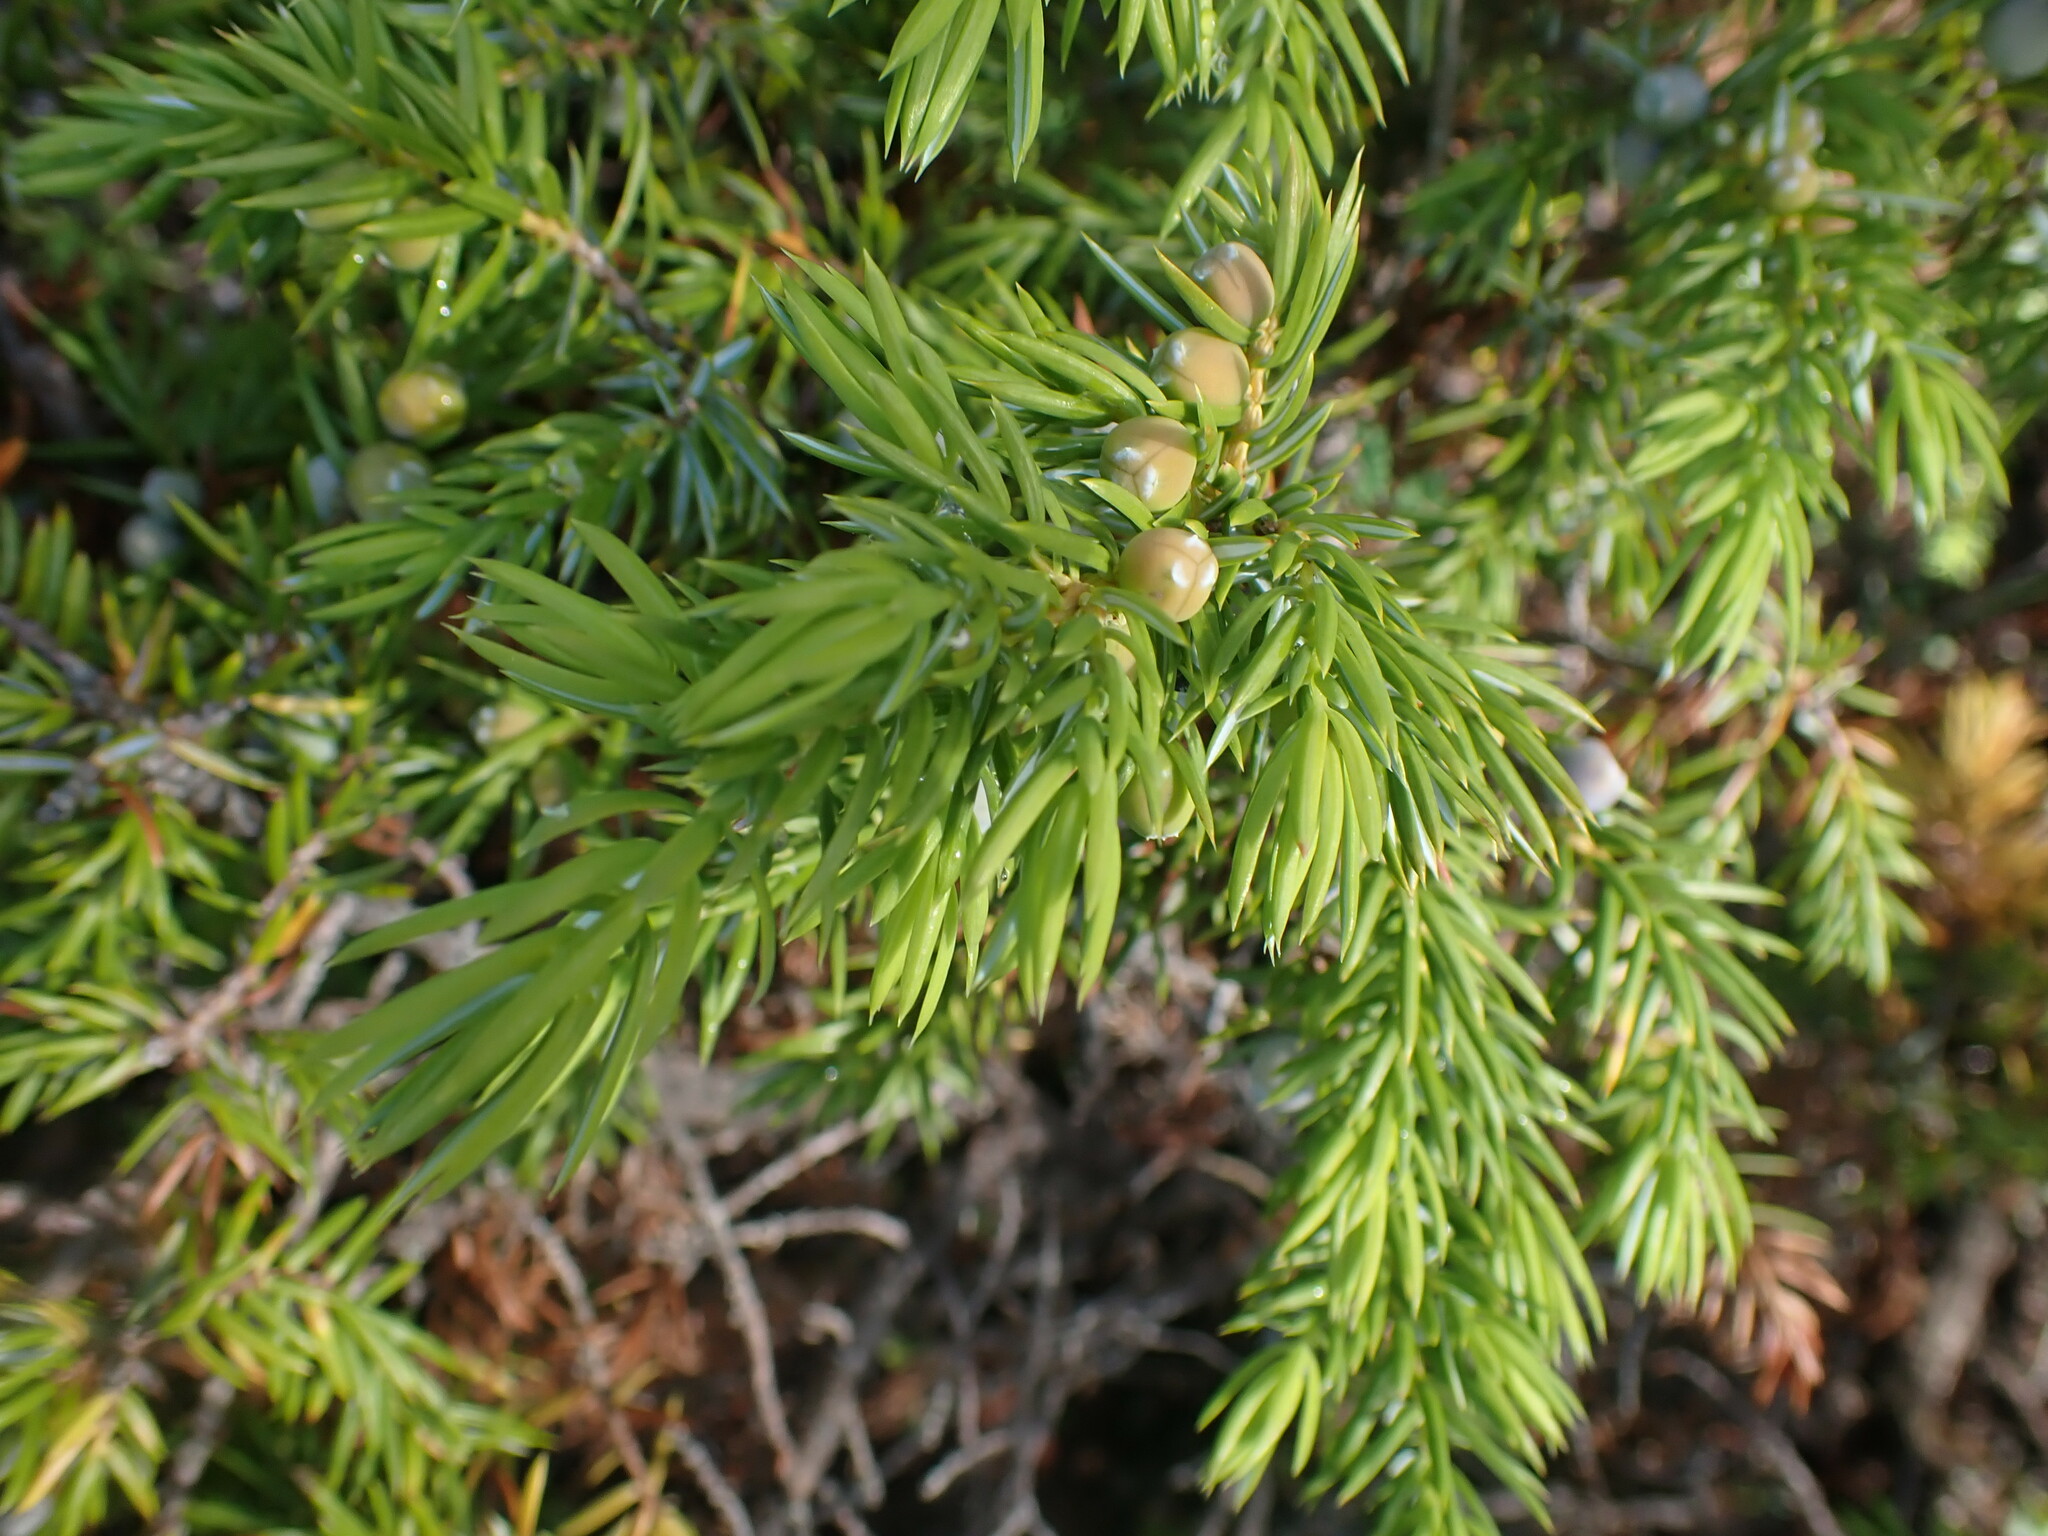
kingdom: Plantae
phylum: Tracheophyta
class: Pinopsida
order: Pinales
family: Cupressaceae
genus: Juniperus
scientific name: Juniperus communis
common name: Common juniper
